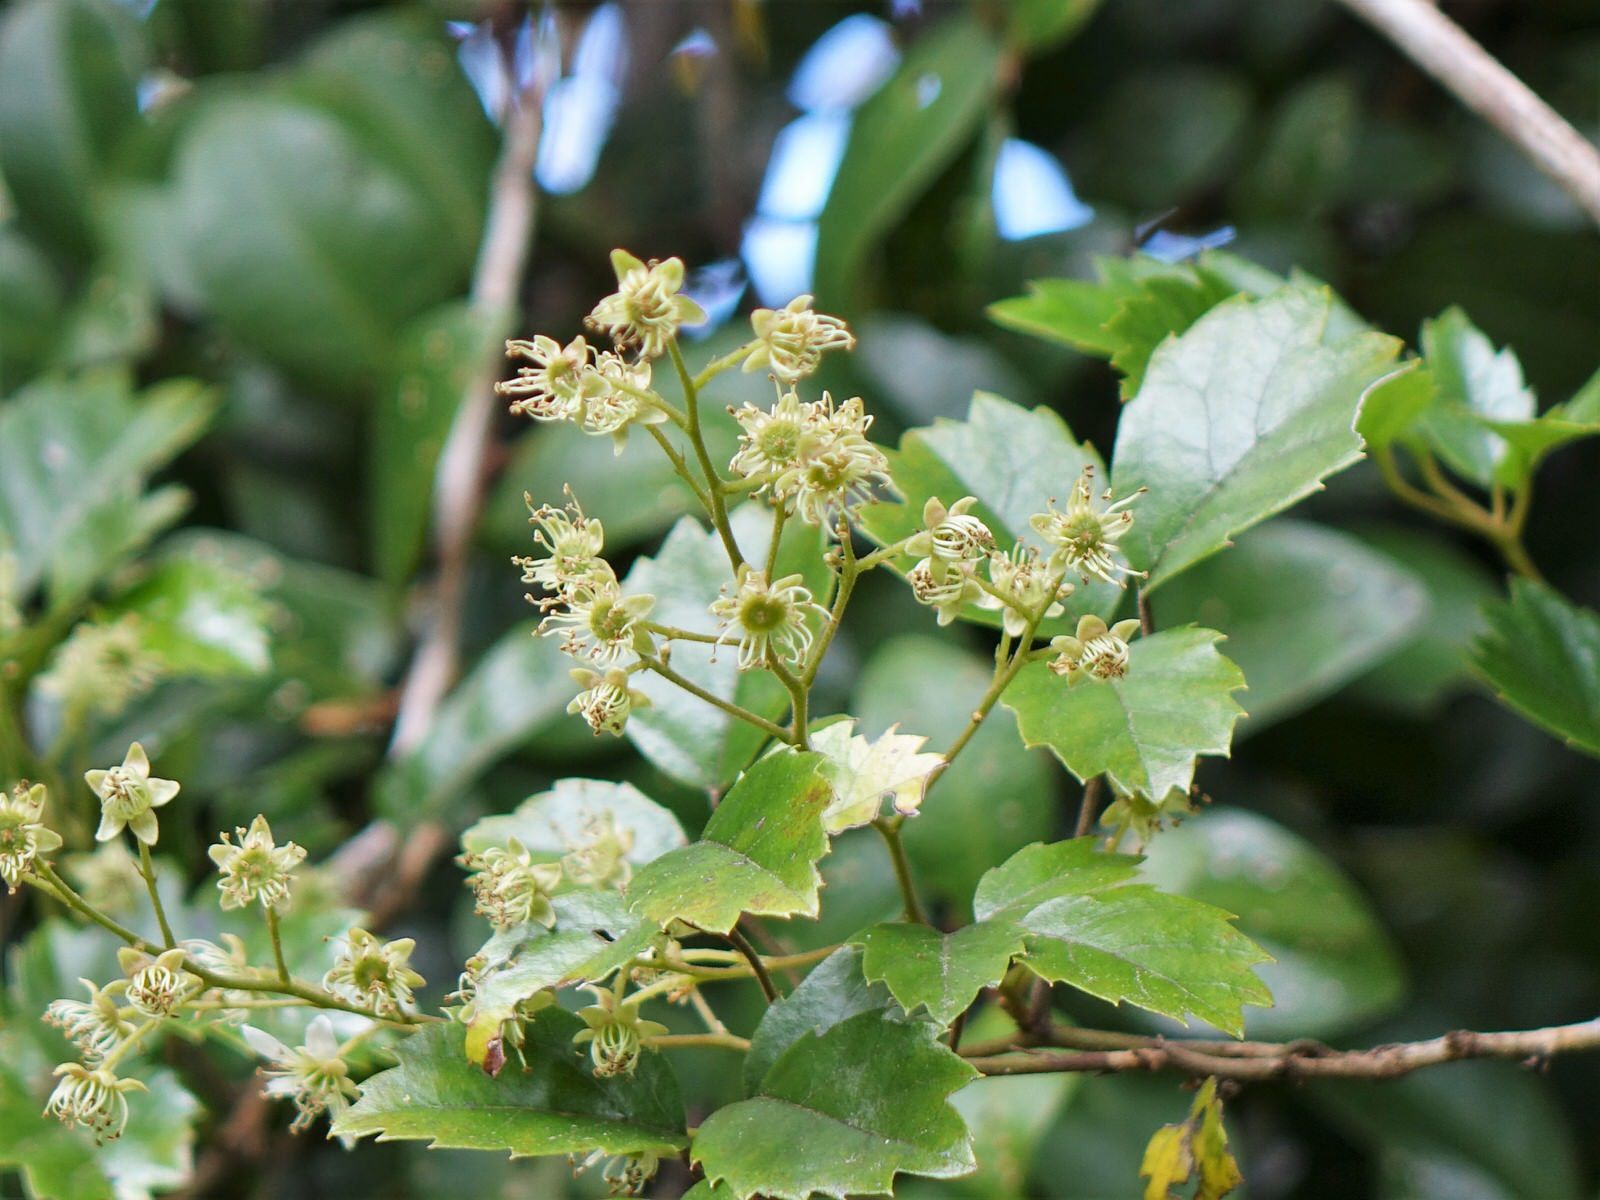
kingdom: Plantae
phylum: Tracheophyta
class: Magnoliopsida
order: Rosales
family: Rosaceae
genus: Rubus
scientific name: Rubus australis
